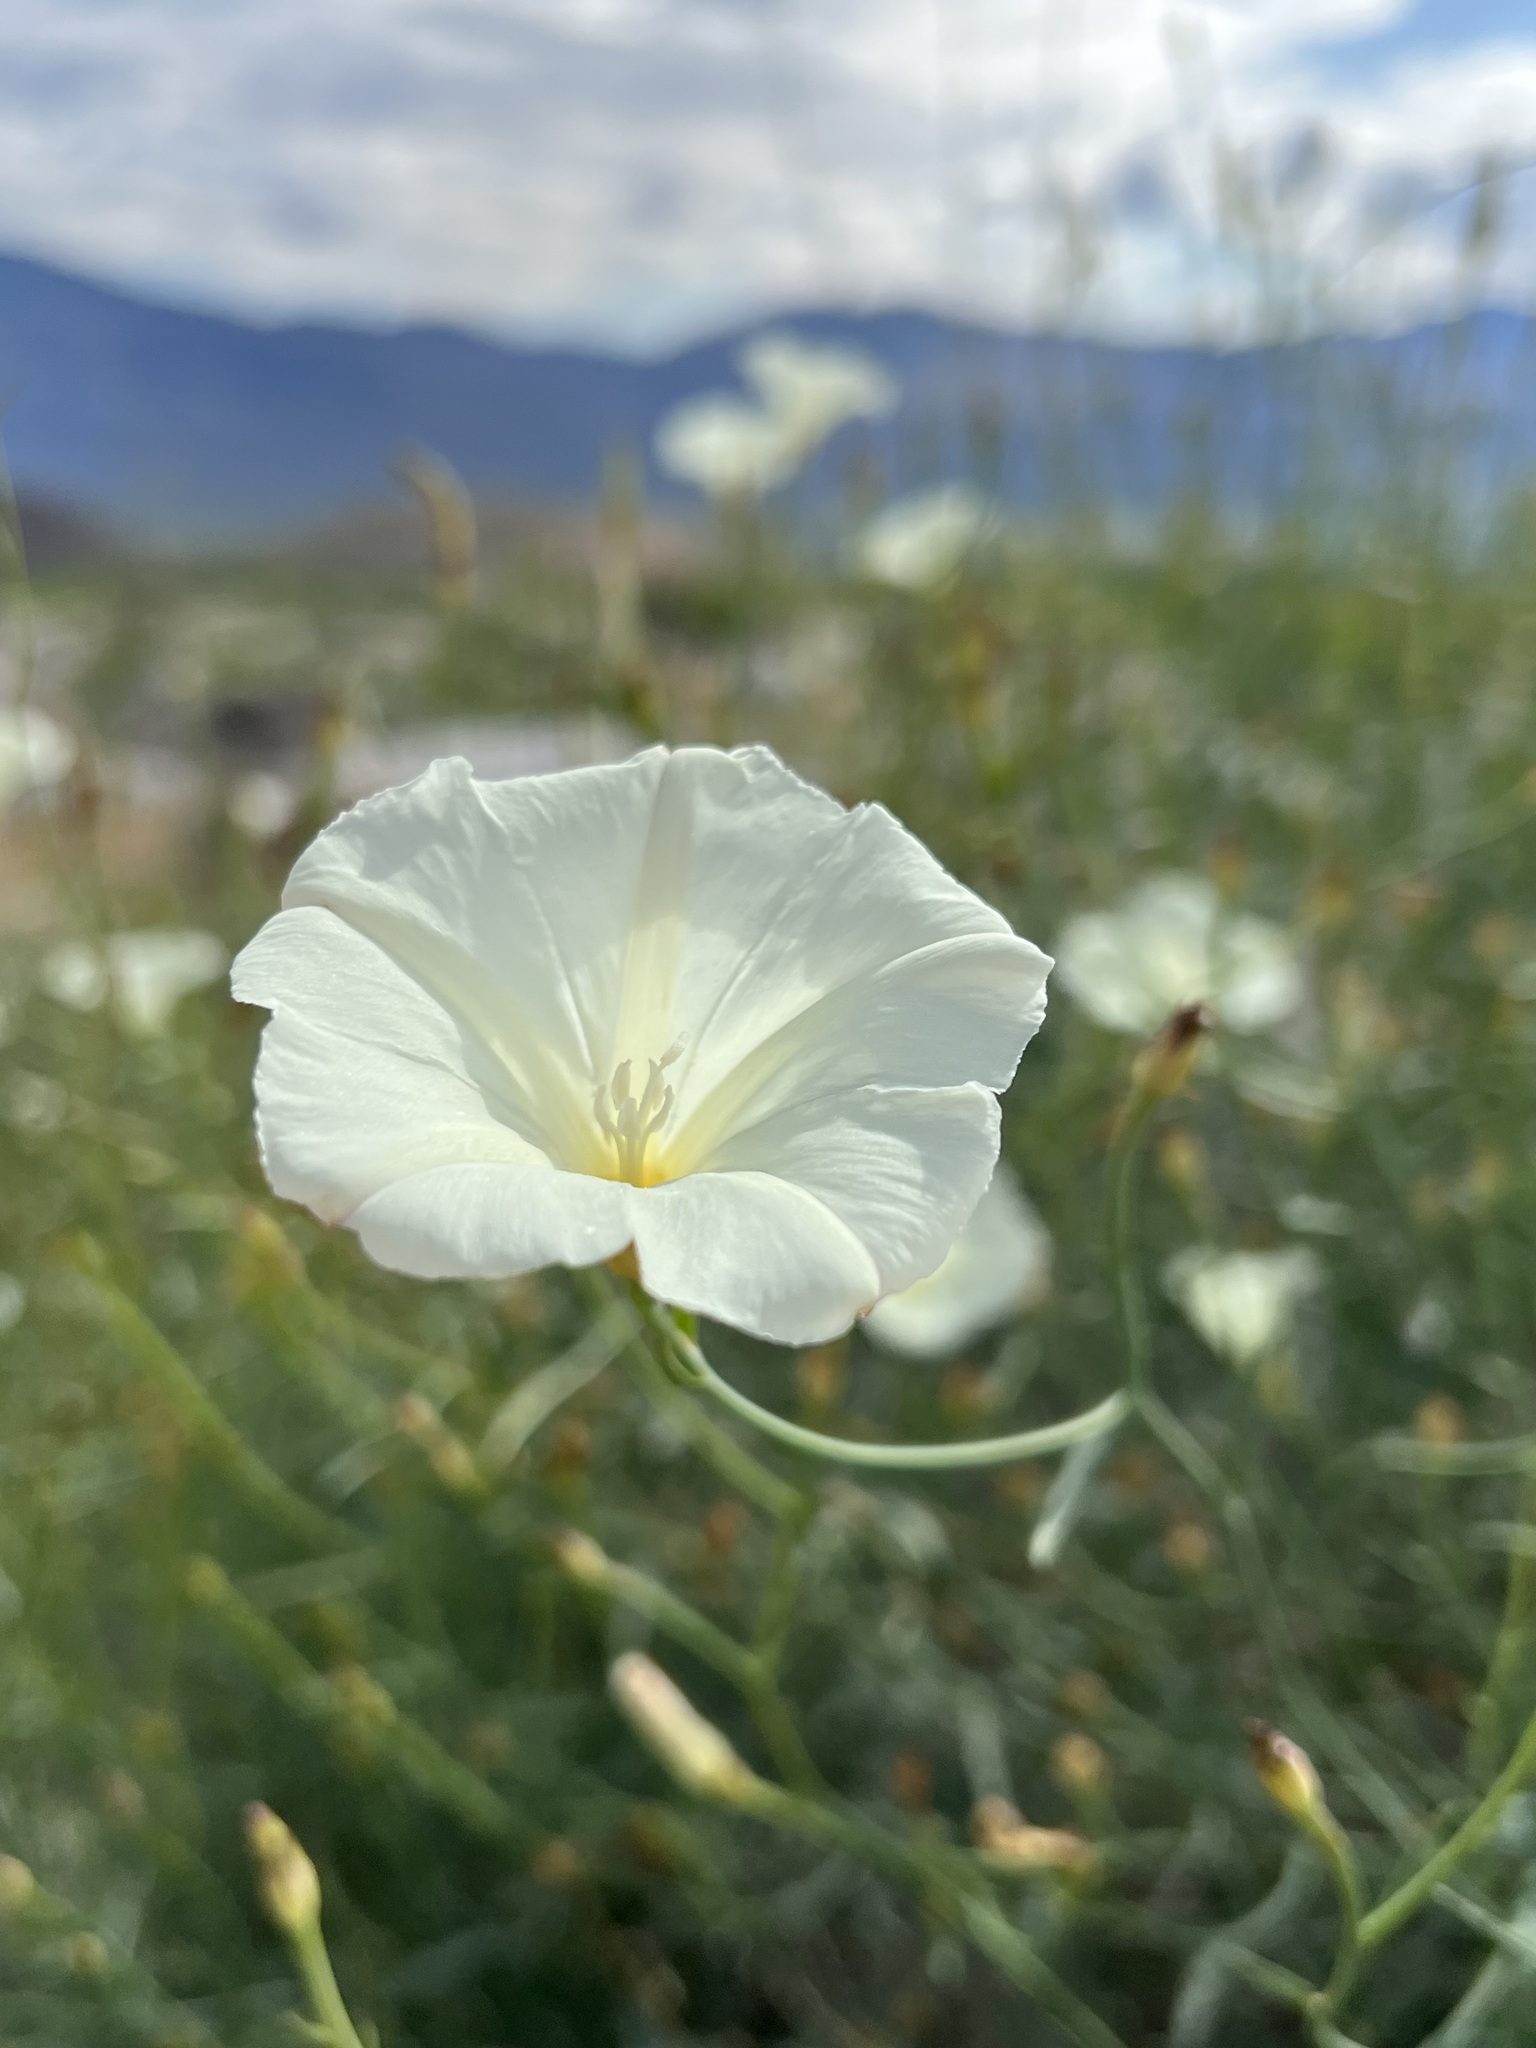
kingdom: Plantae
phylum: Tracheophyta
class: Magnoliopsida
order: Solanales
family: Convolvulaceae
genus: Calystegia
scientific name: Calystegia longipes
